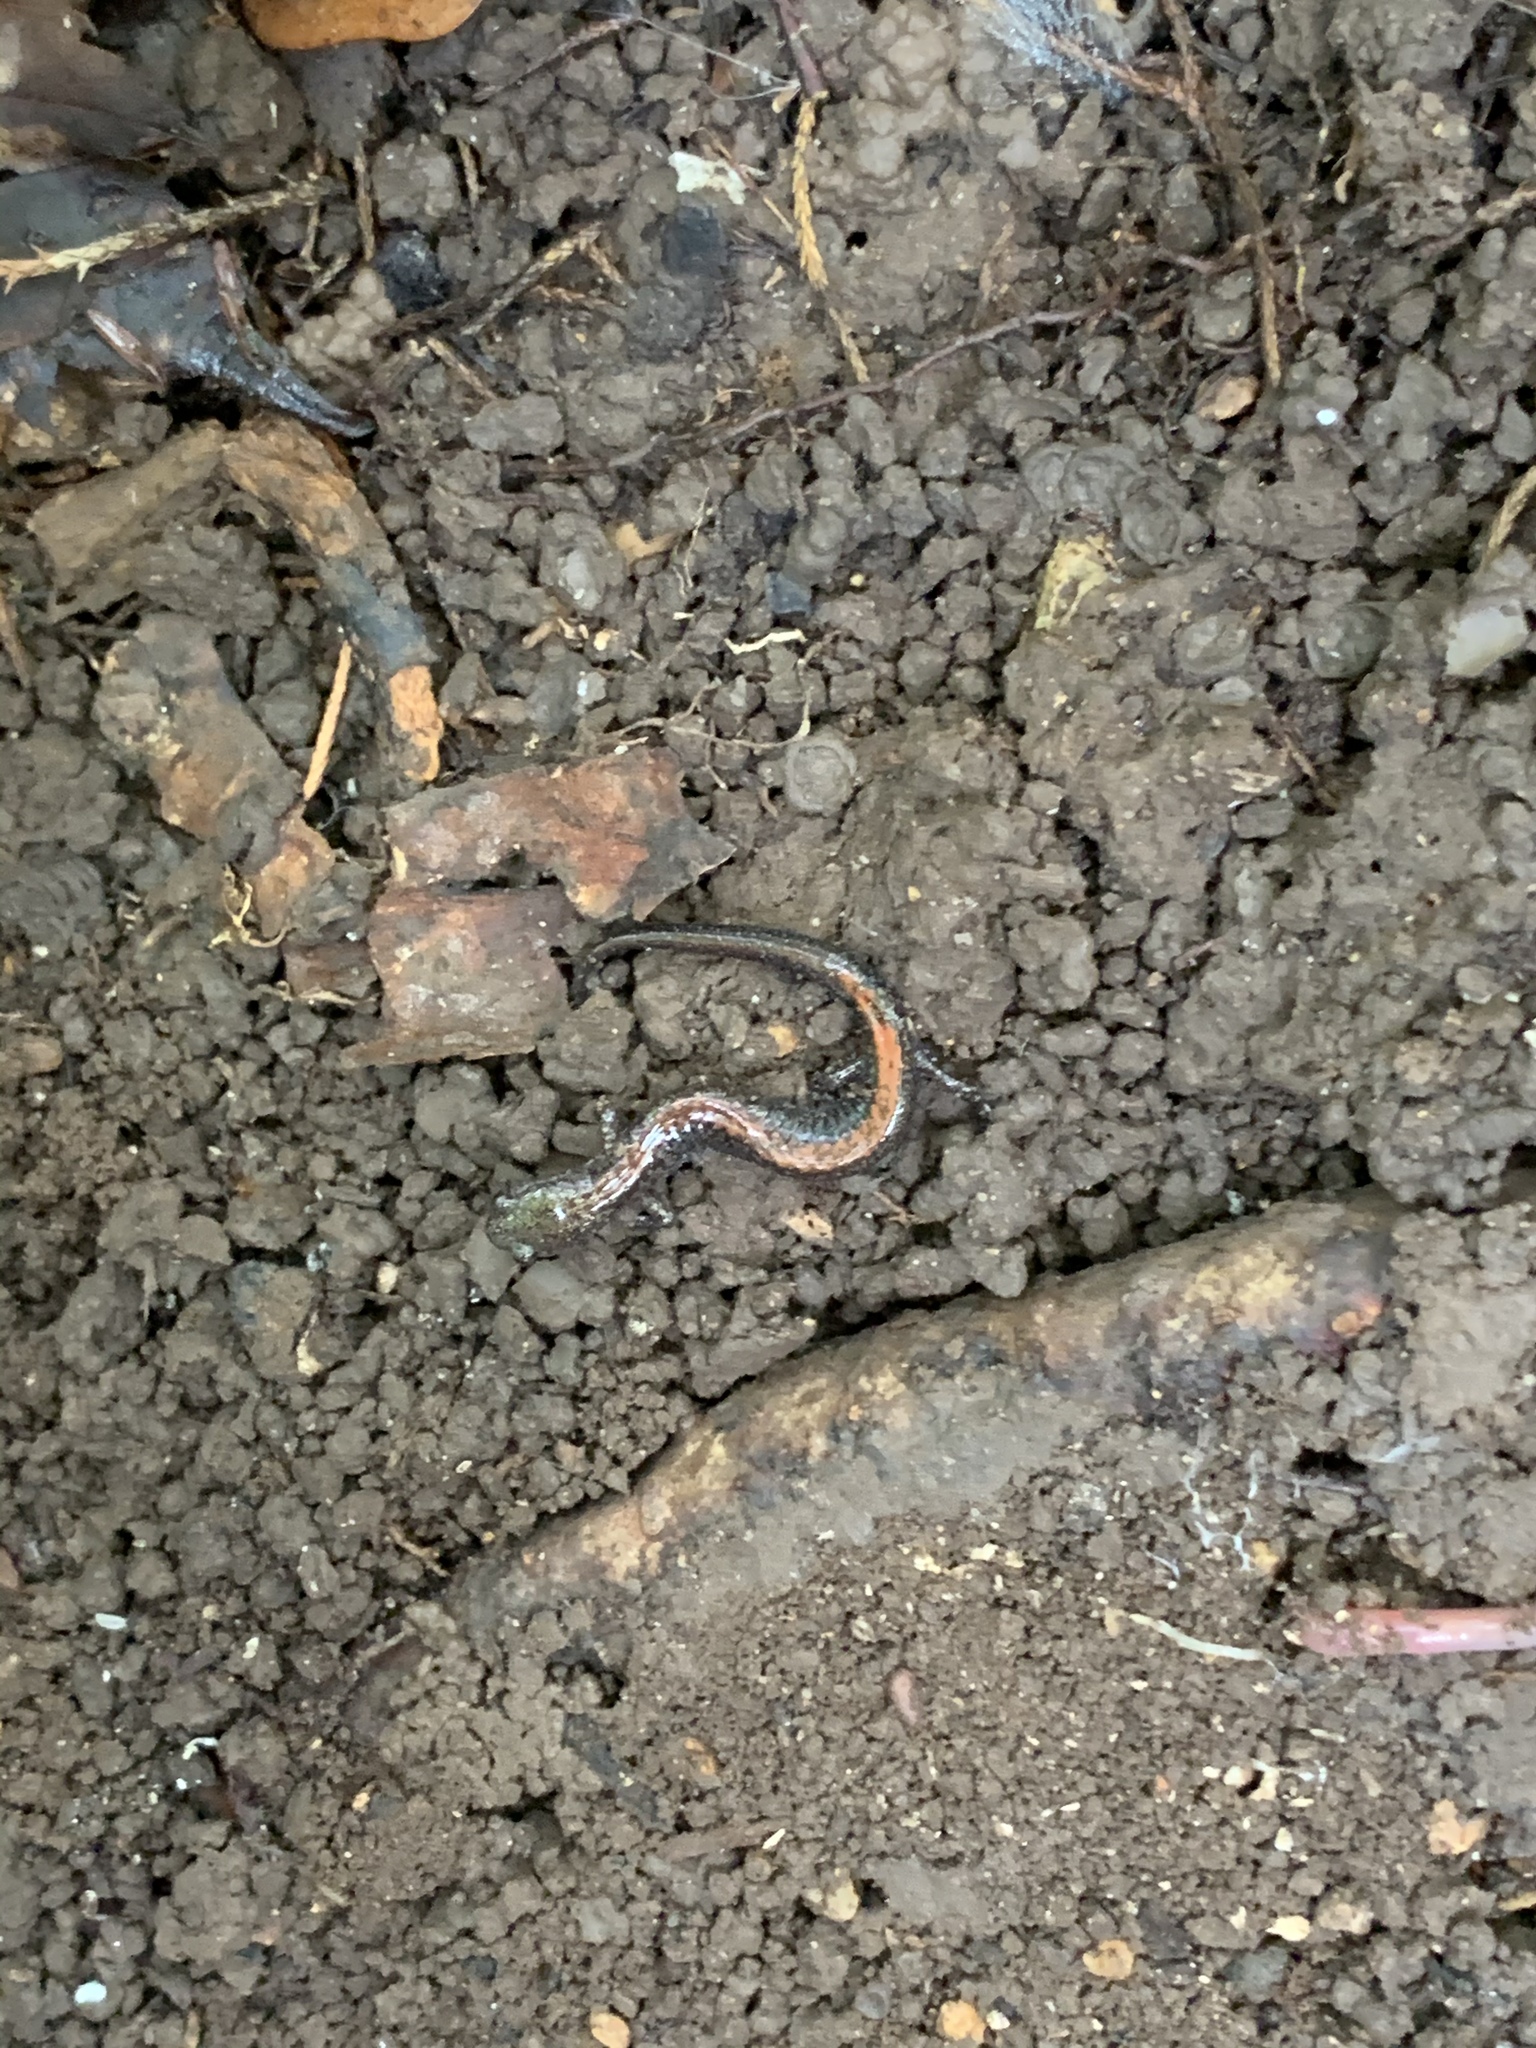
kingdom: Animalia
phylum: Chordata
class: Amphibia
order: Caudata
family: Plethodontidae
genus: Plethodon
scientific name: Plethodon cinereus
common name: Redback salamander
